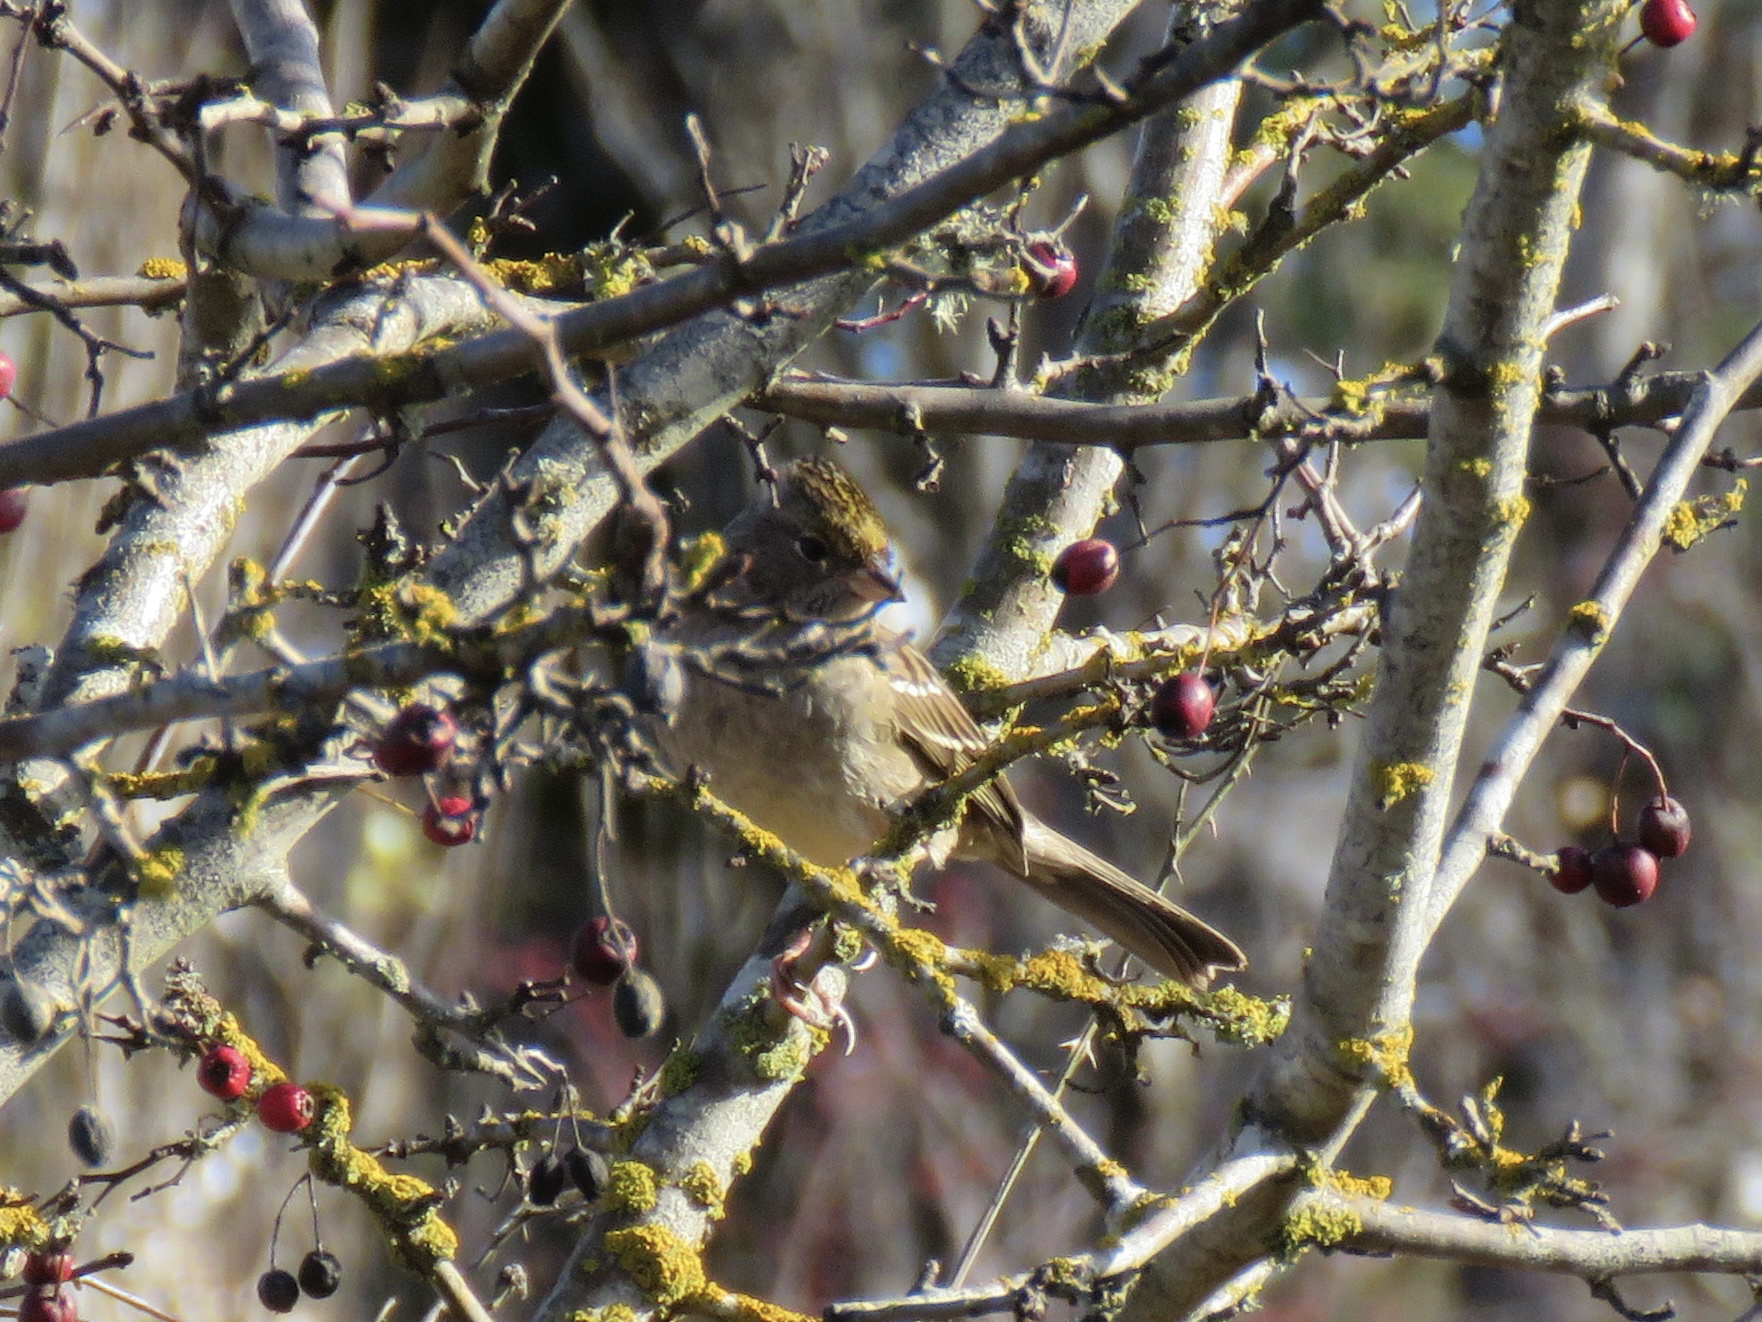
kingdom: Animalia
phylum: Chordata
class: Aves
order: Passeriformes
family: Passerellidae
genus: Zonotrichia
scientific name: Zonotrichia atricapilla
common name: Golden-crowned sparrow
